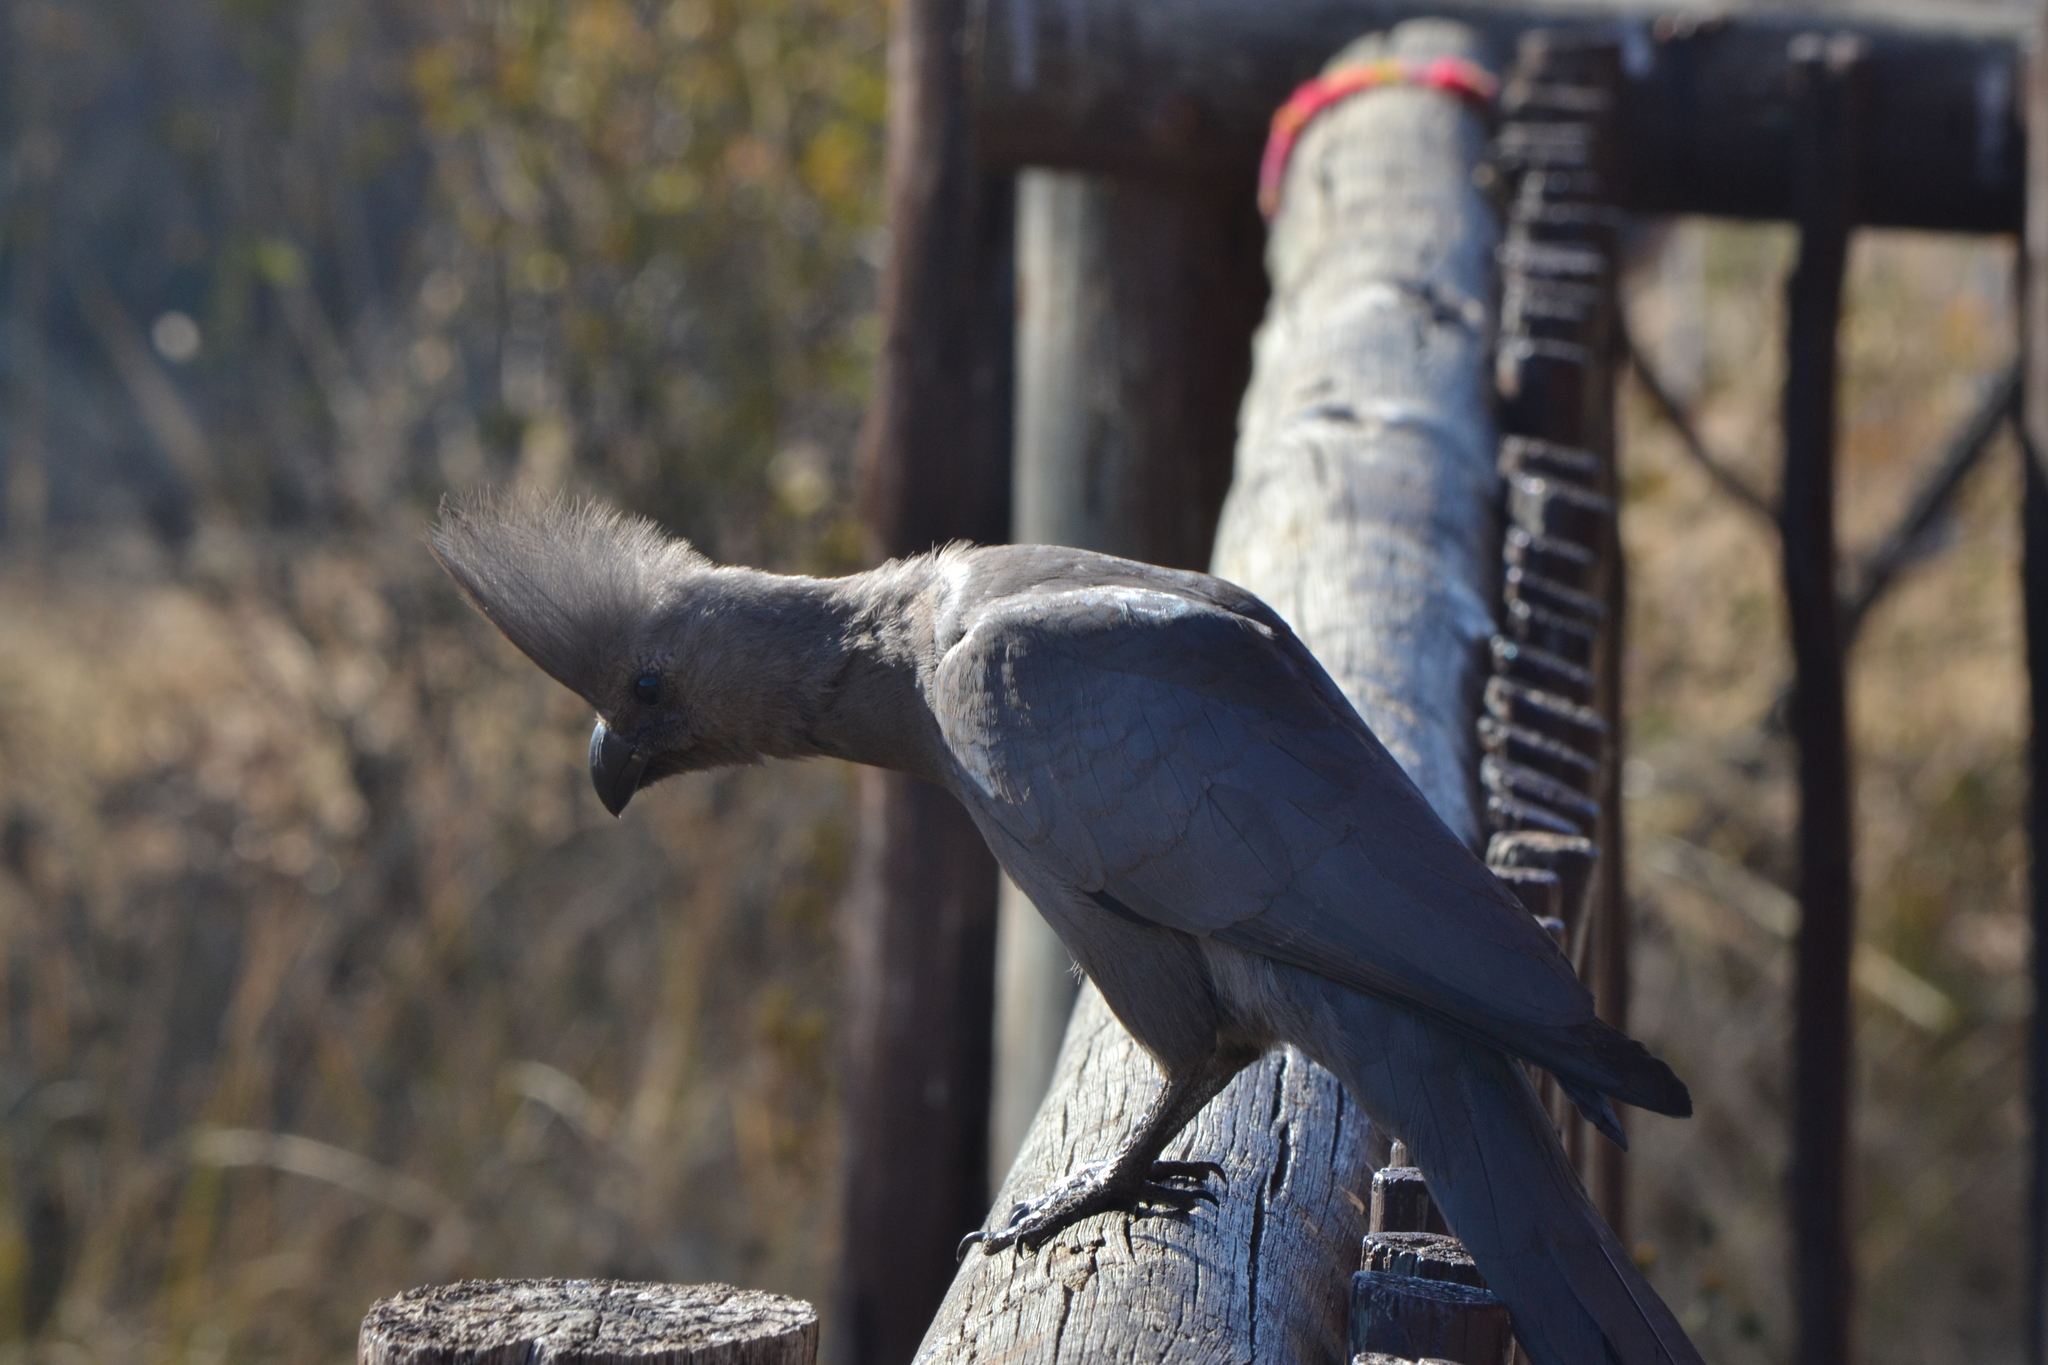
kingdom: Animalia
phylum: Chordata
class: Aves
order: Musophagiformes
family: Musophagidae
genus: Corythaixoides
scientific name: Corythaixoides concolor
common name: Grey go-away-bird
